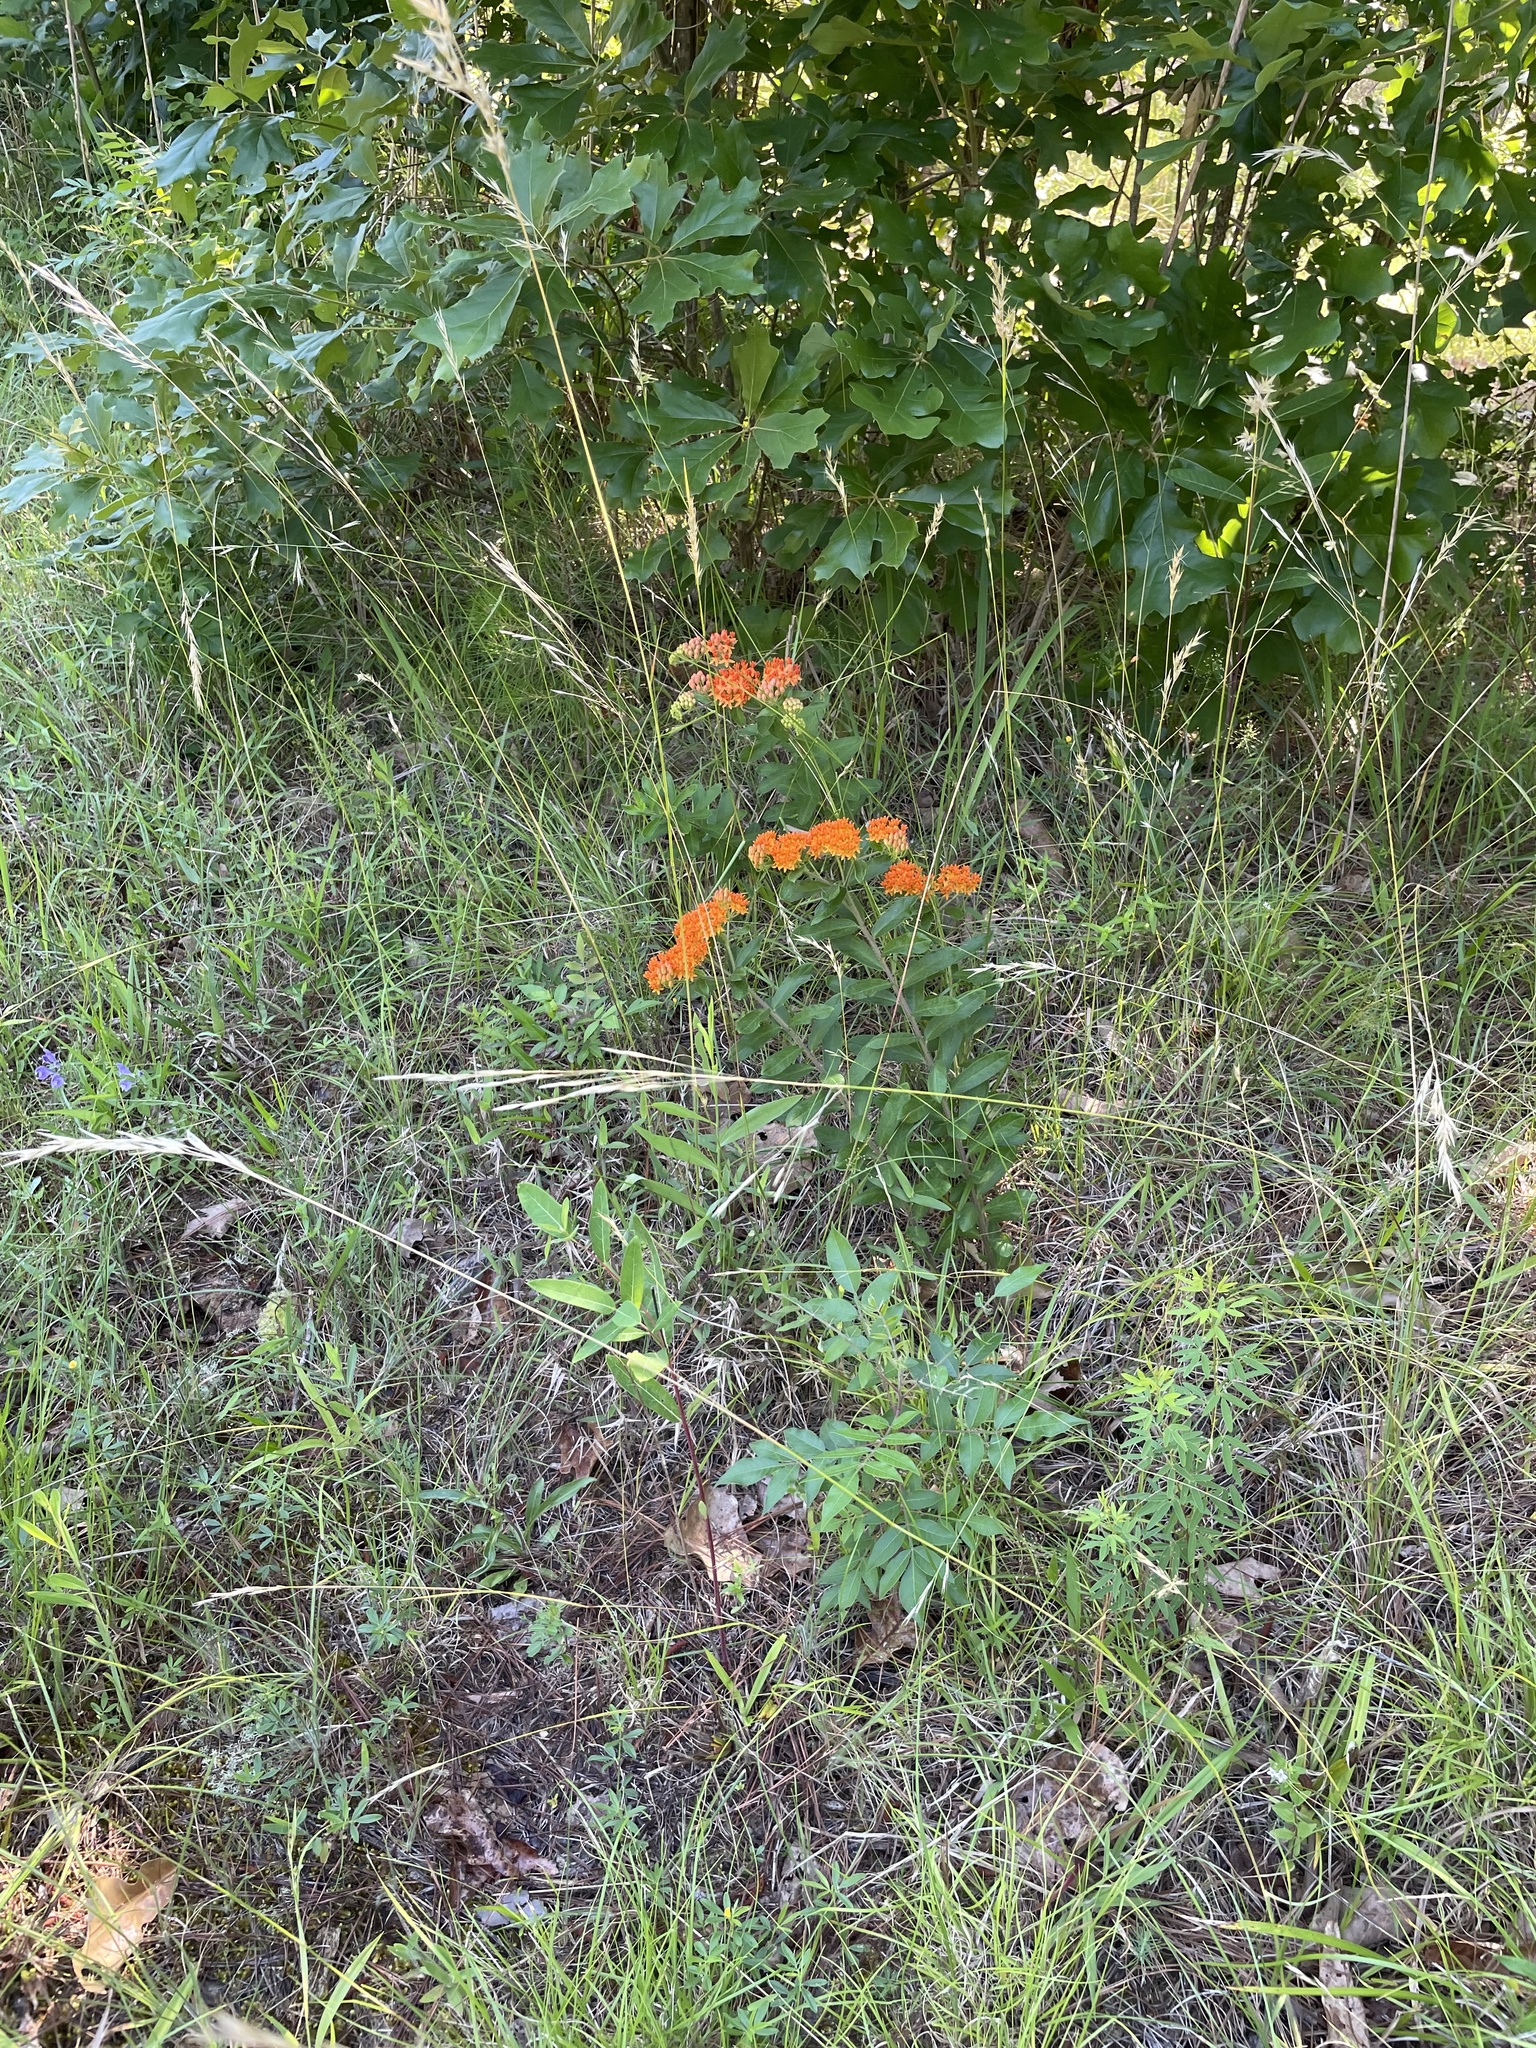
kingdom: Plantae
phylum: Tracheophyta
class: Magnoliopsida
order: Gentianales
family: Apocynaceae
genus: Asclepias
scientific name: Asclepias tuberosa
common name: Butterfly milkweed
